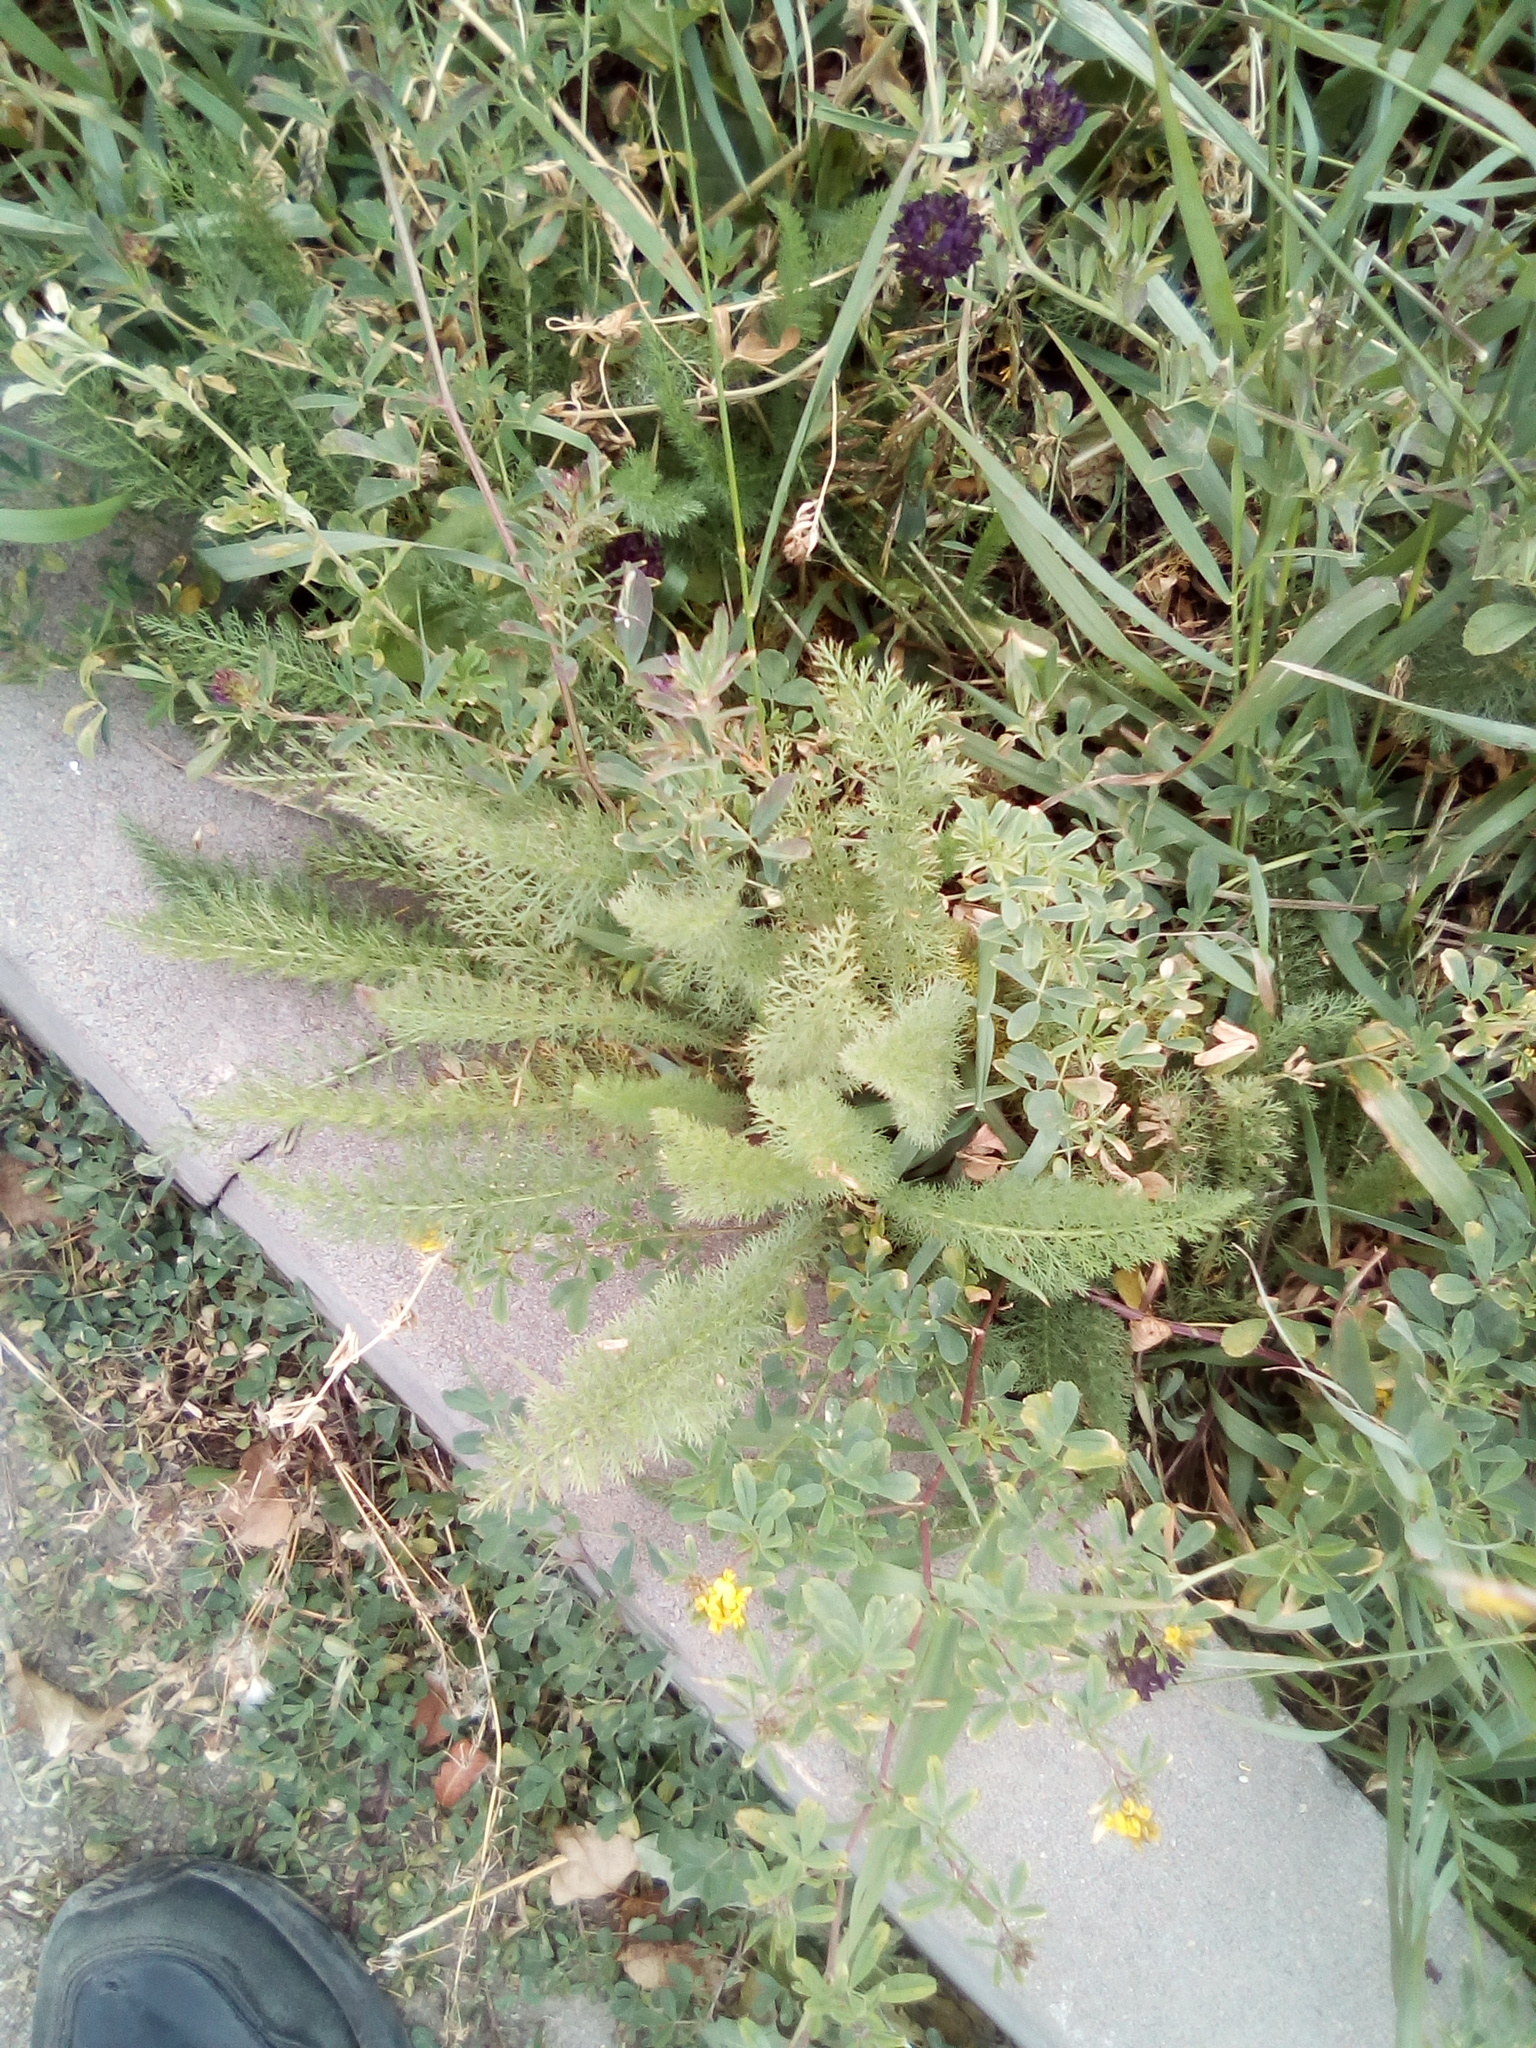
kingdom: Plantae
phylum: Tracheophyta
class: Magnoliopsida
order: Asterales
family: Asteraceae
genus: Achillea
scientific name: Achillea millefolium
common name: Yarrow
